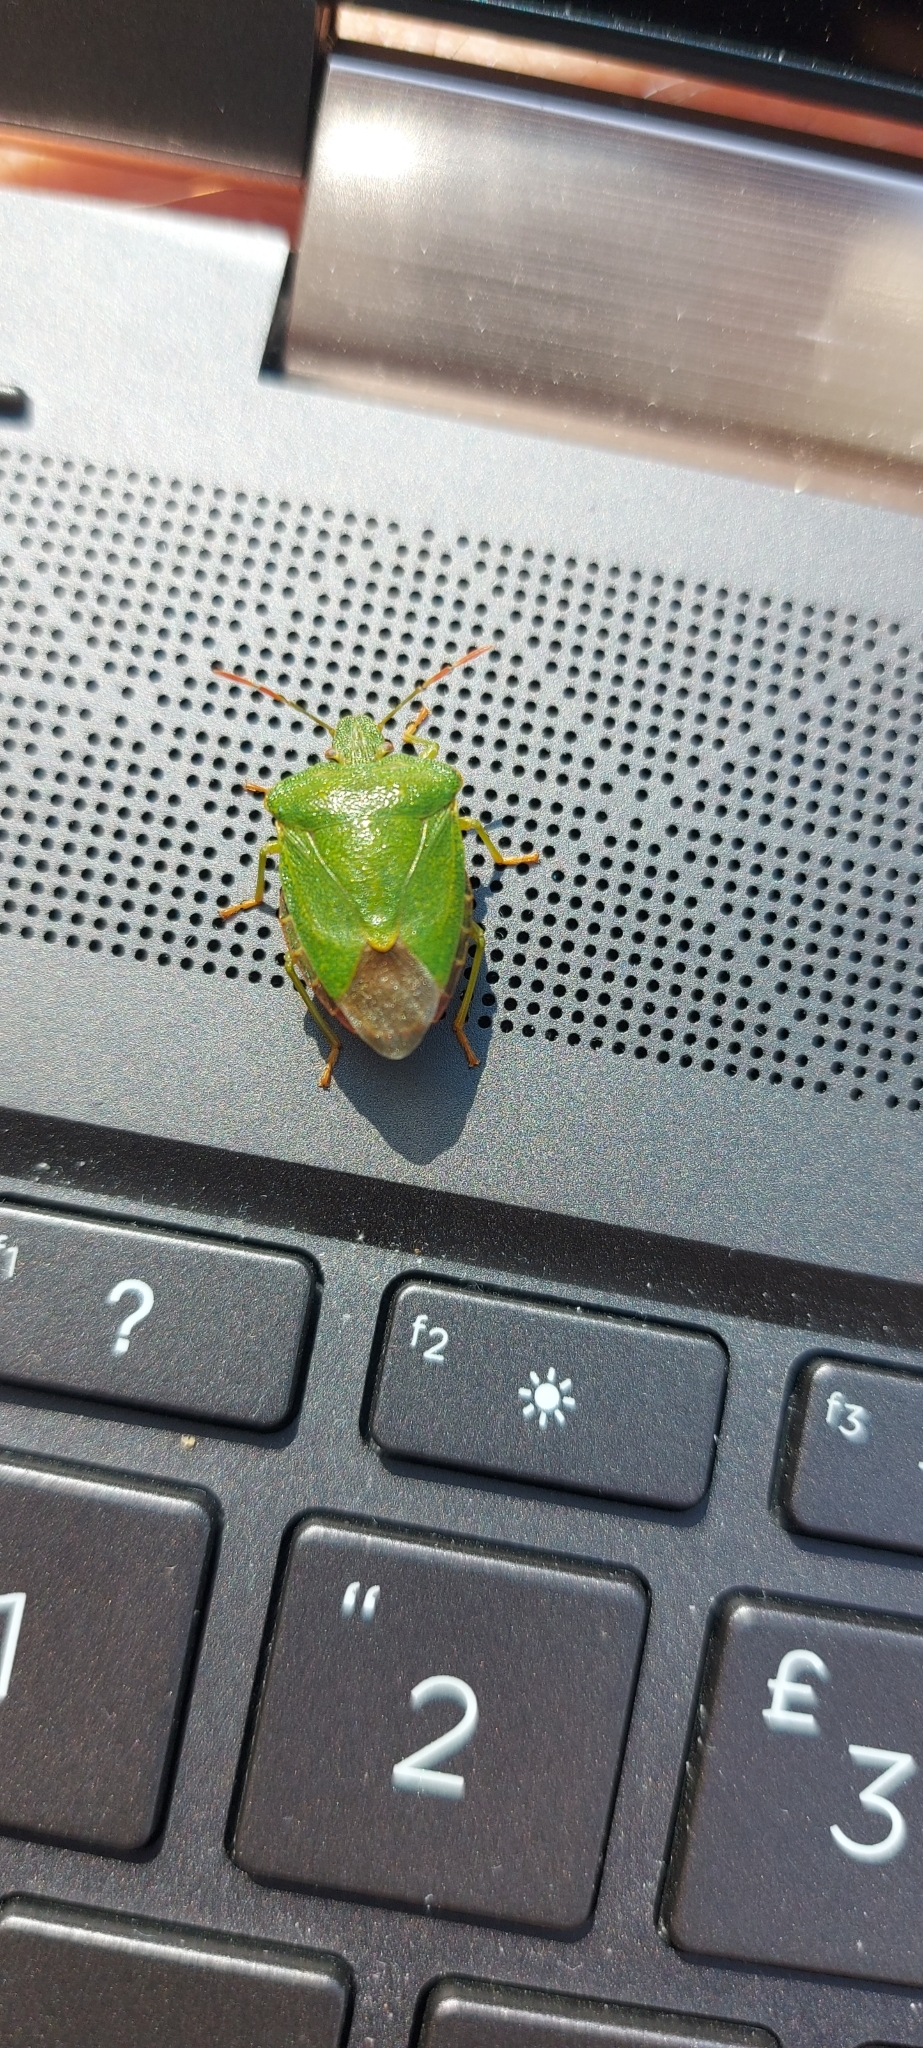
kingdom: Animalia
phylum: Arthropoda
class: Insecta
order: Hemiptera
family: Pentatomidae
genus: Palomena
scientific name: Palomena prasina
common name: Green shieldbug
